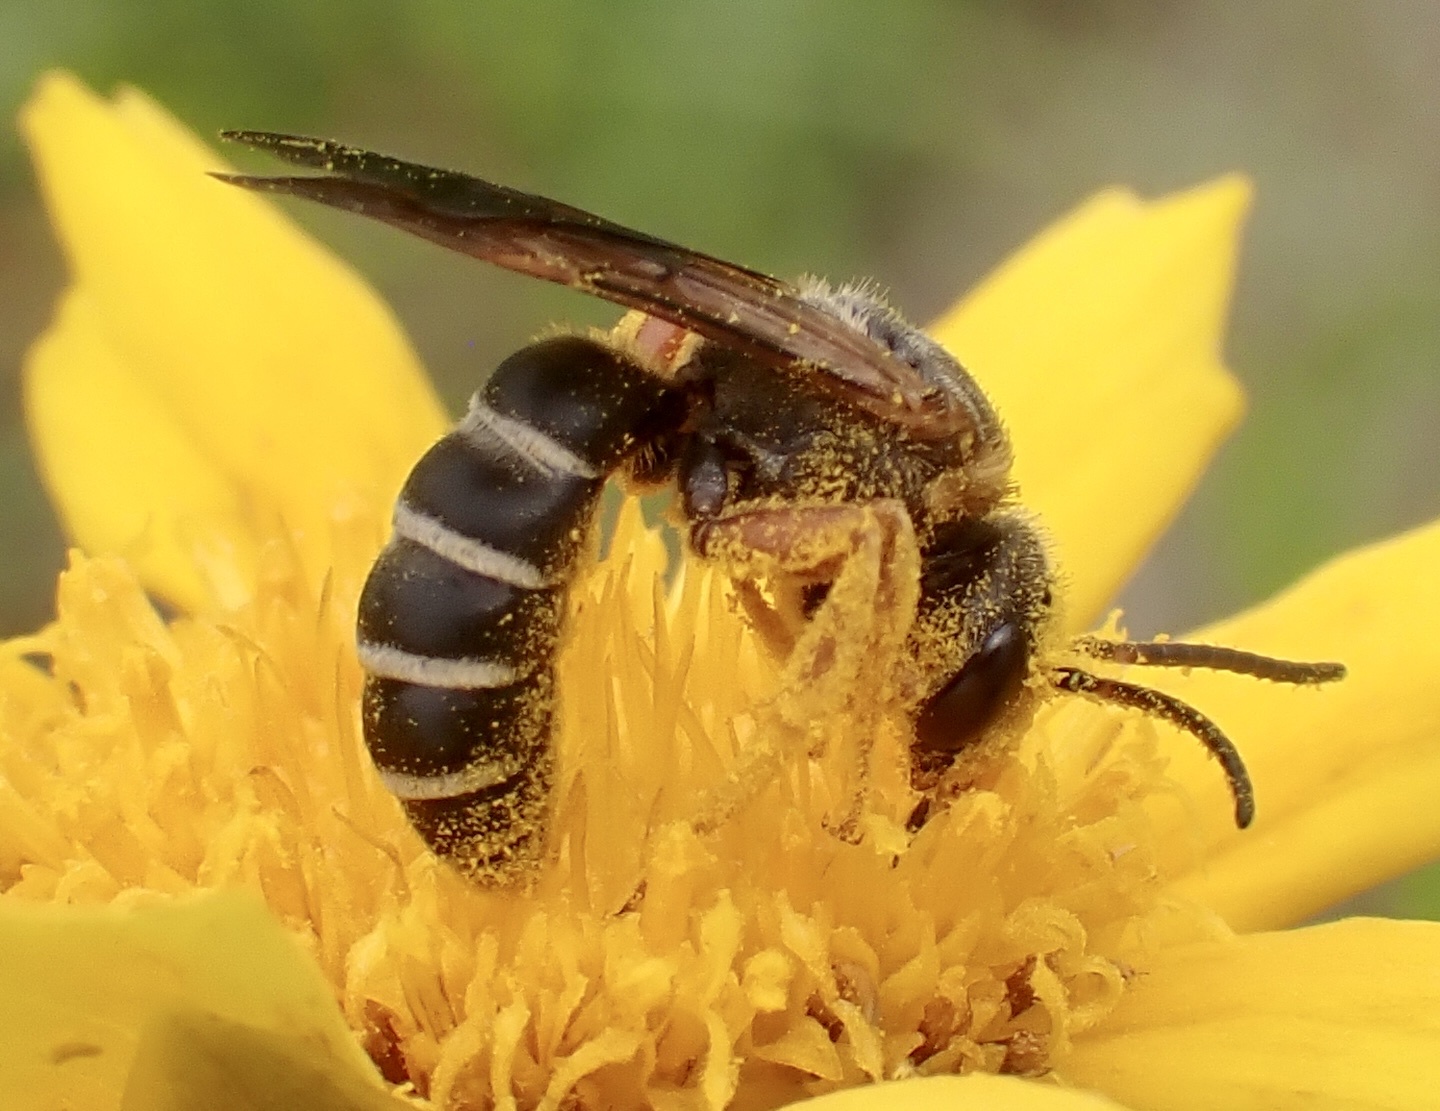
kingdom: Animalia
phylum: Arthropoda
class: Insecta
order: Hymenoptera
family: Halictidae
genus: Halictus
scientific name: Halictus parallelus
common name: Parallel-striped sweat bee
